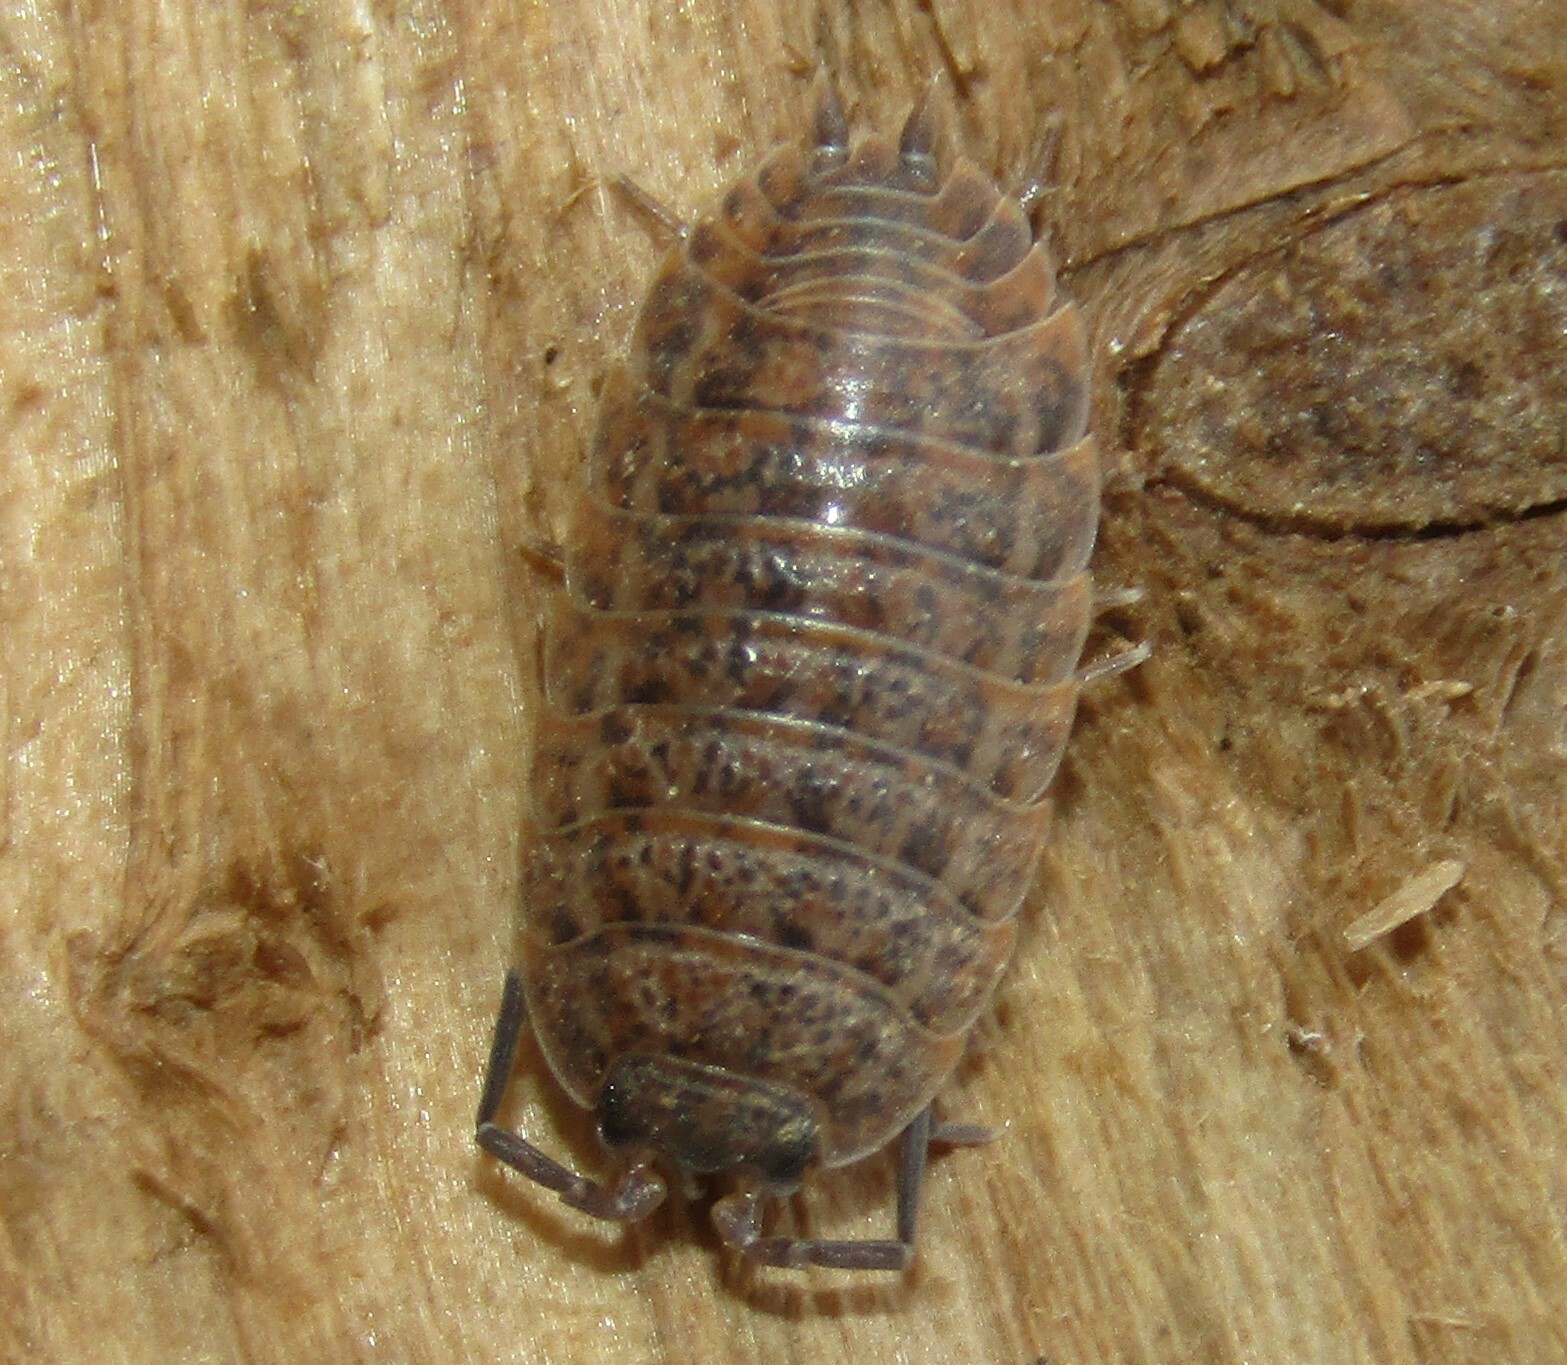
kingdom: Animalia
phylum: Arthropoda
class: Malacostraca
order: Isopoda
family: Trachelipodidae
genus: Trachelipus
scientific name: Trachelipus rathkii
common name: Isopod
